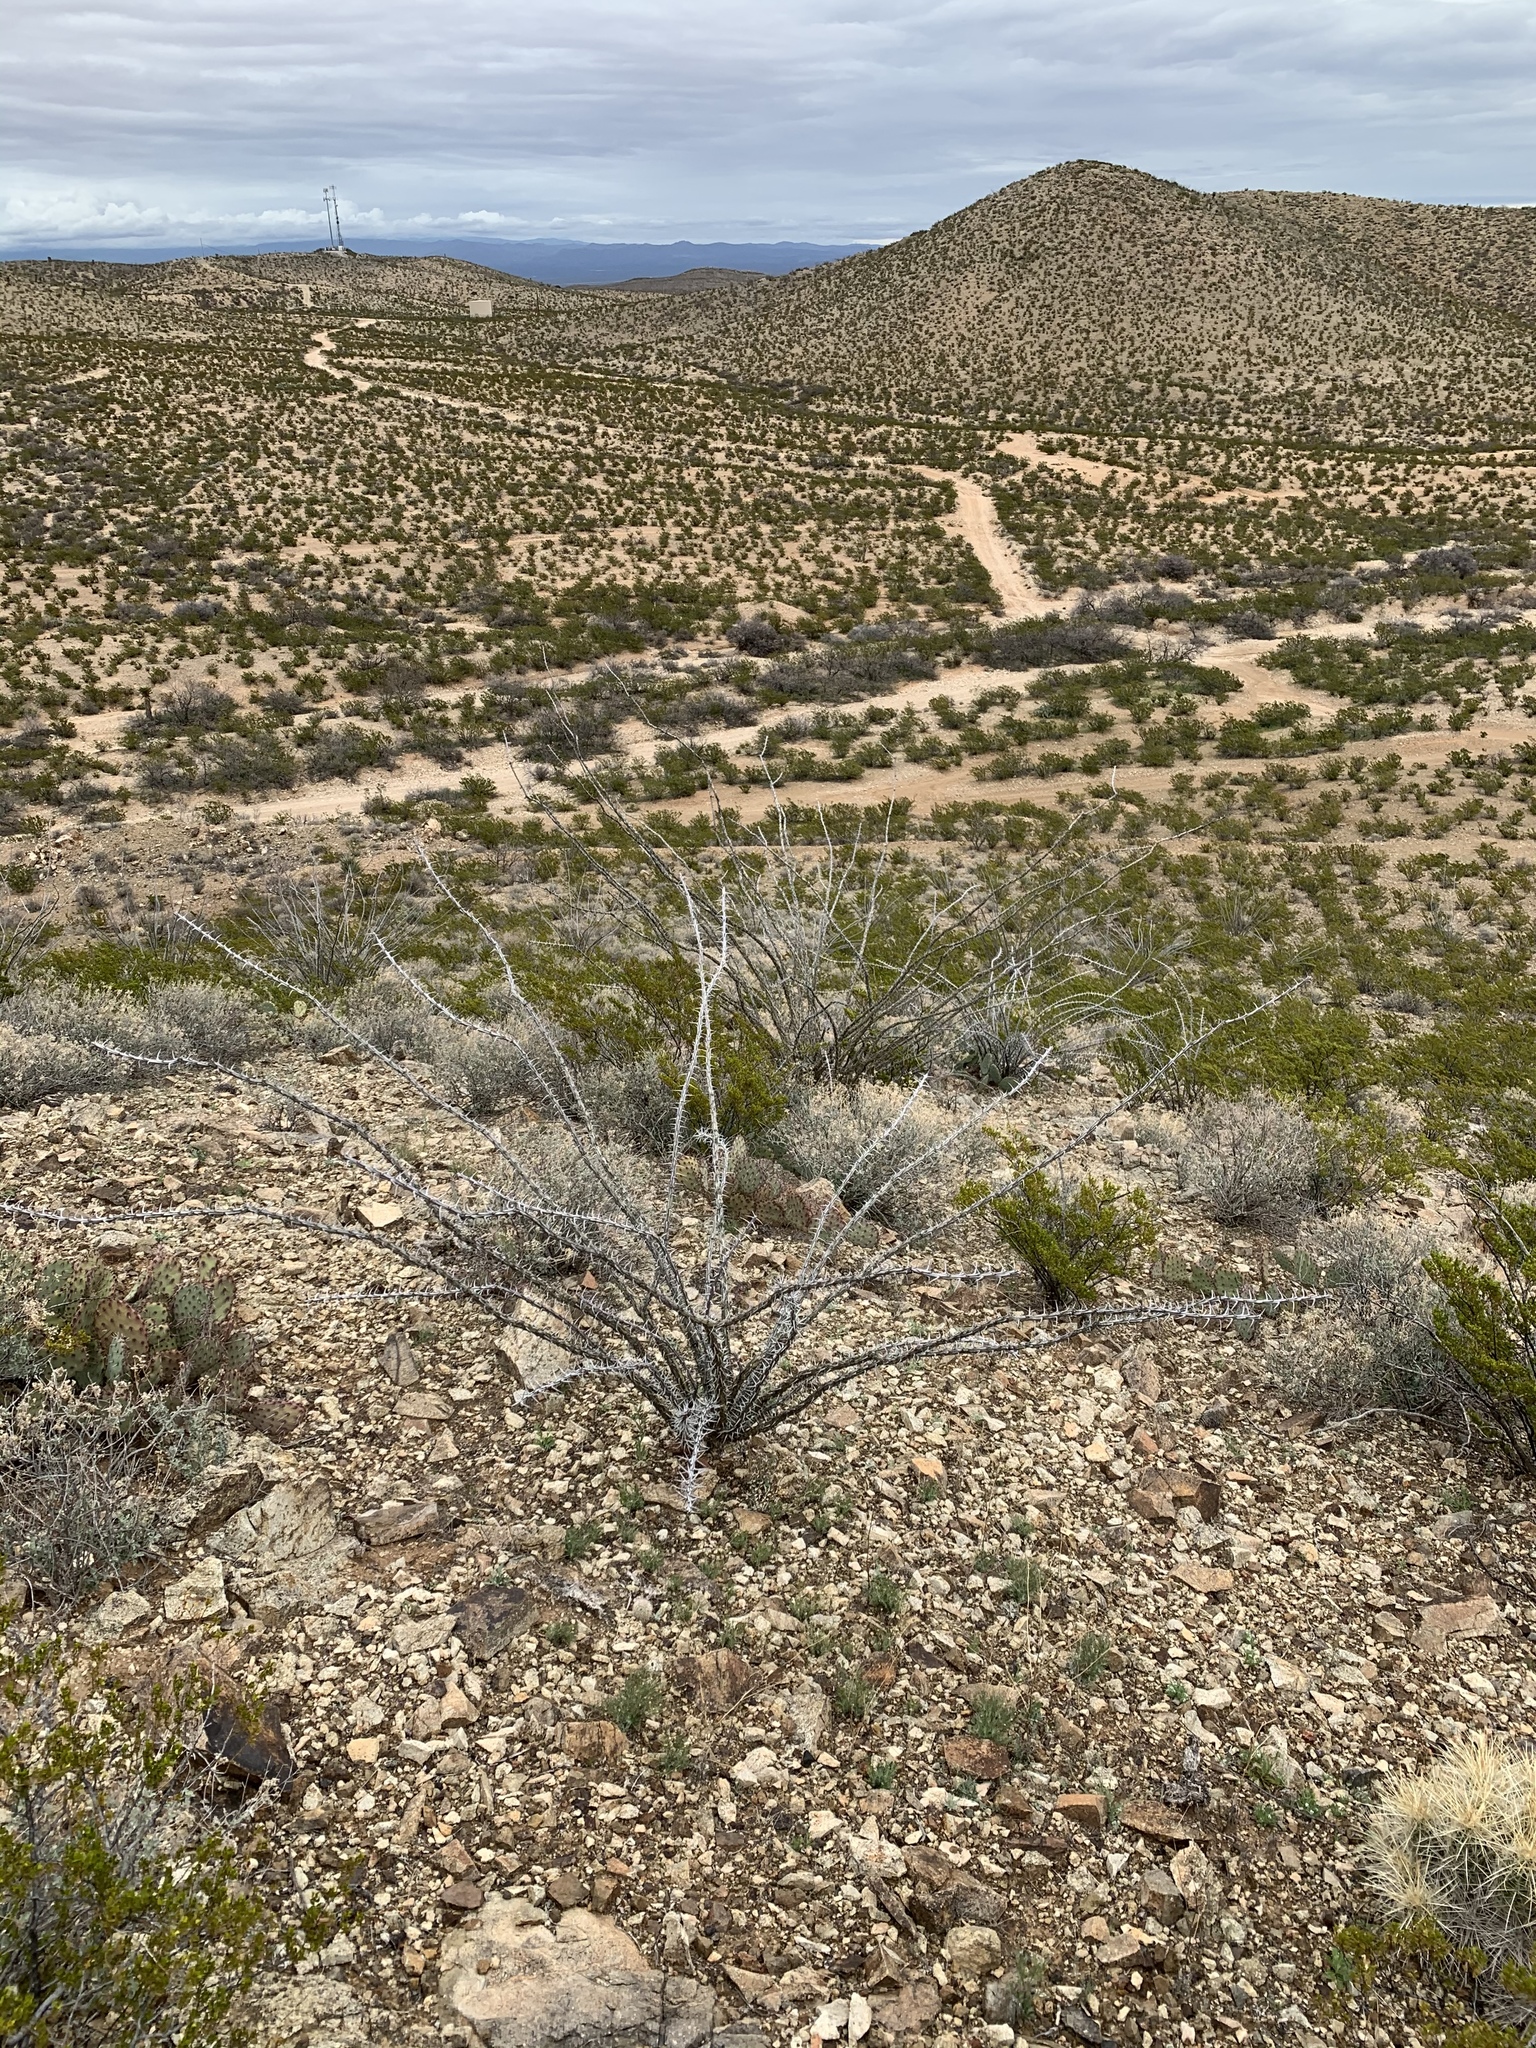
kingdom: Plantae
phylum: Tracheophyta
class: Magnoliopsida
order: Ericales
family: Fouquieriaceae
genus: Fouquieria
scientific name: Fouquieria splendens
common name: Vine-cactus
